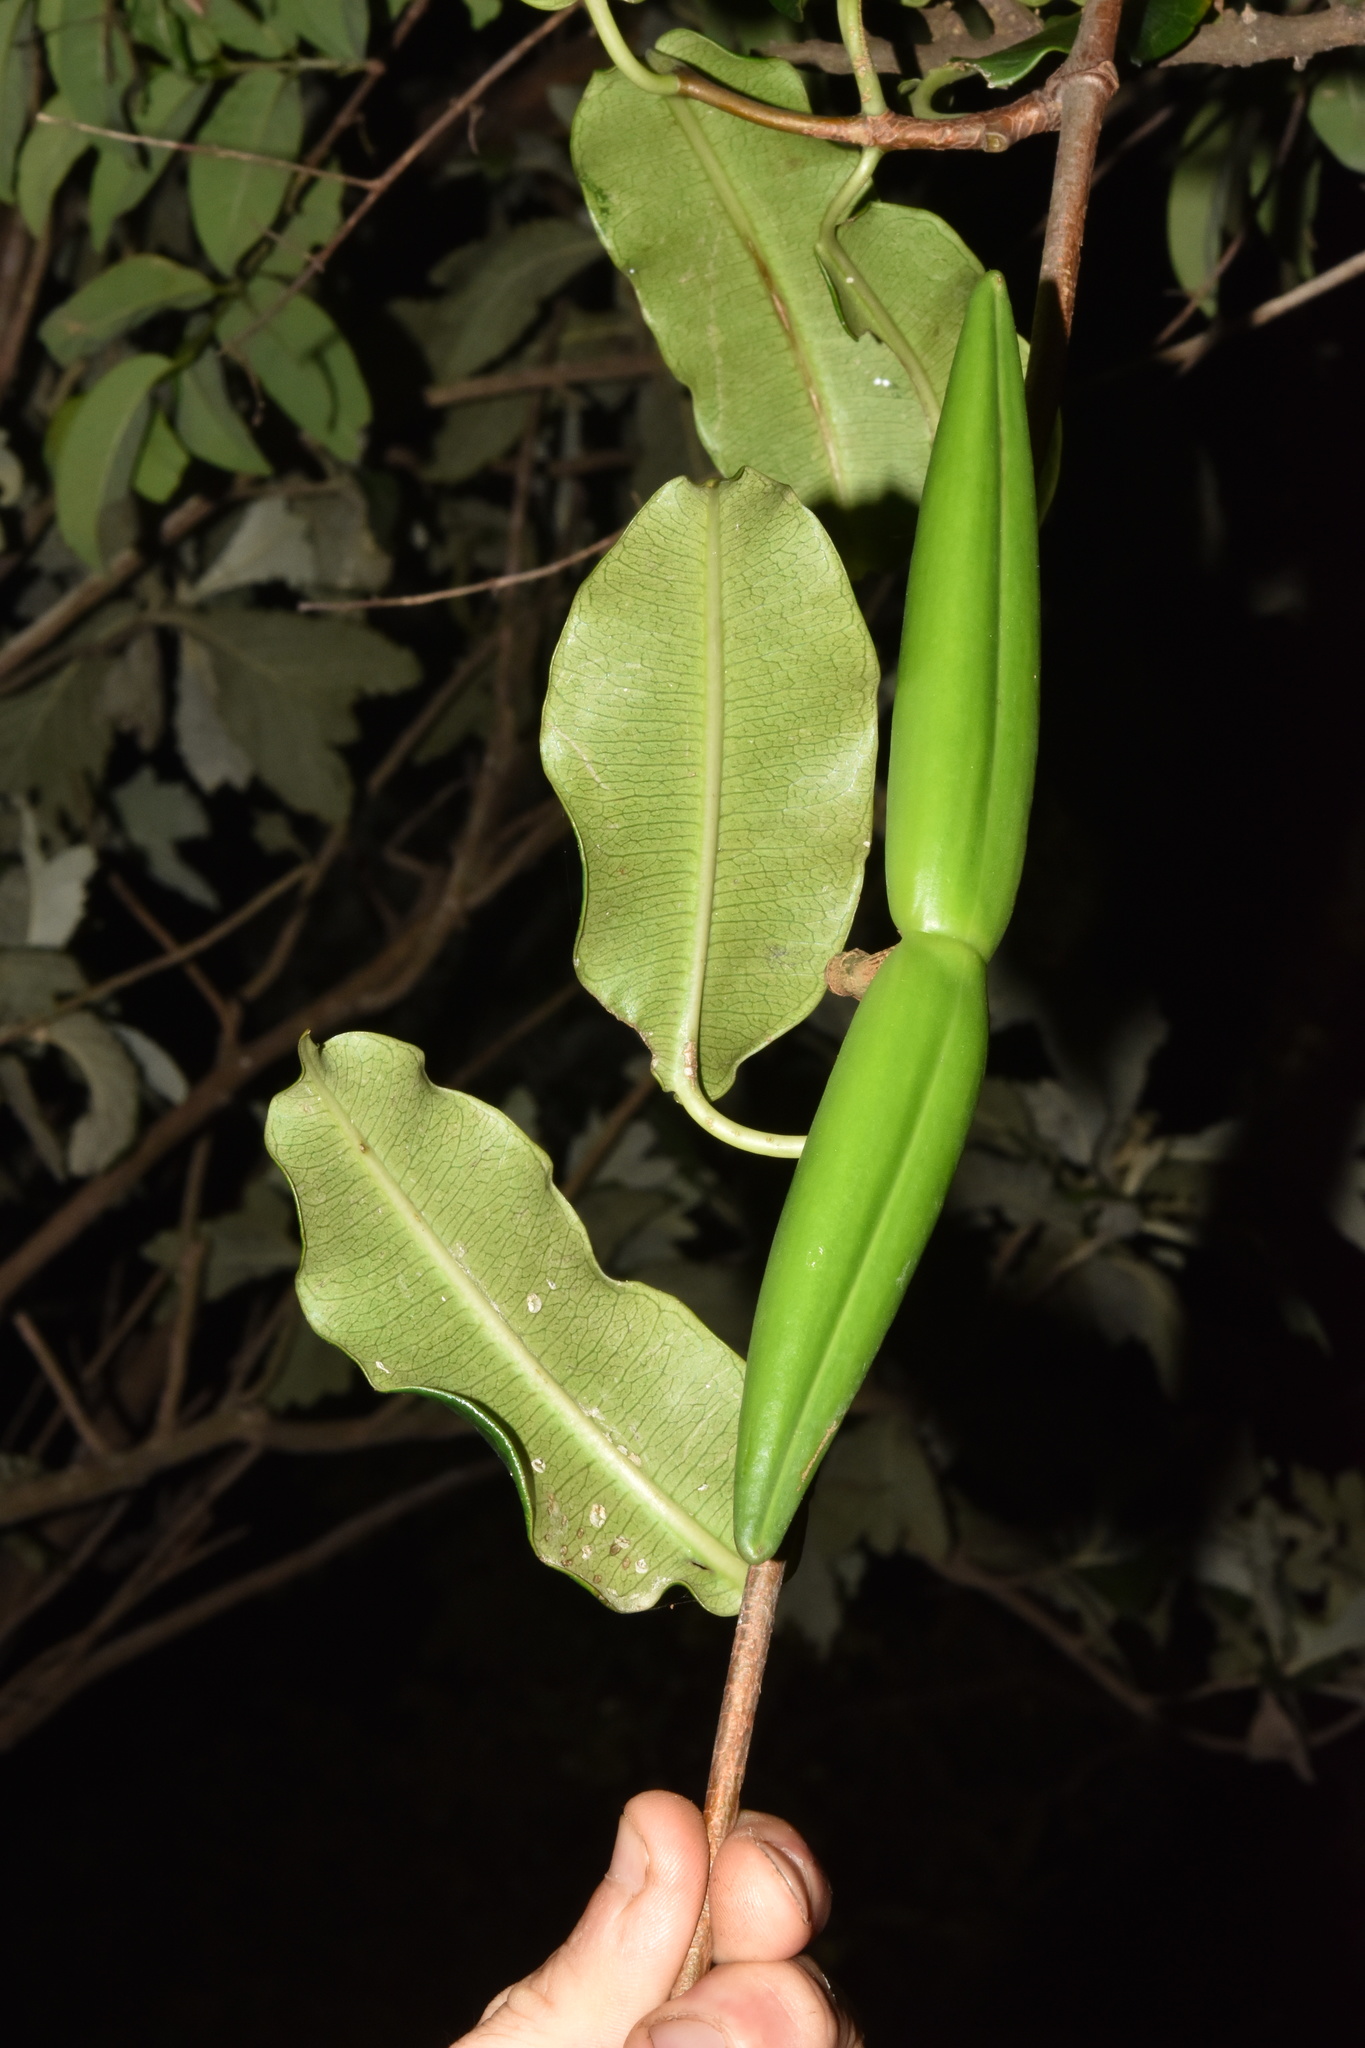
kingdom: Plantae
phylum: Tracheophyta
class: Magnoliopsida
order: Gentianales
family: Apocynaceae
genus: Petopentia
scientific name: Petopentia natalensis
